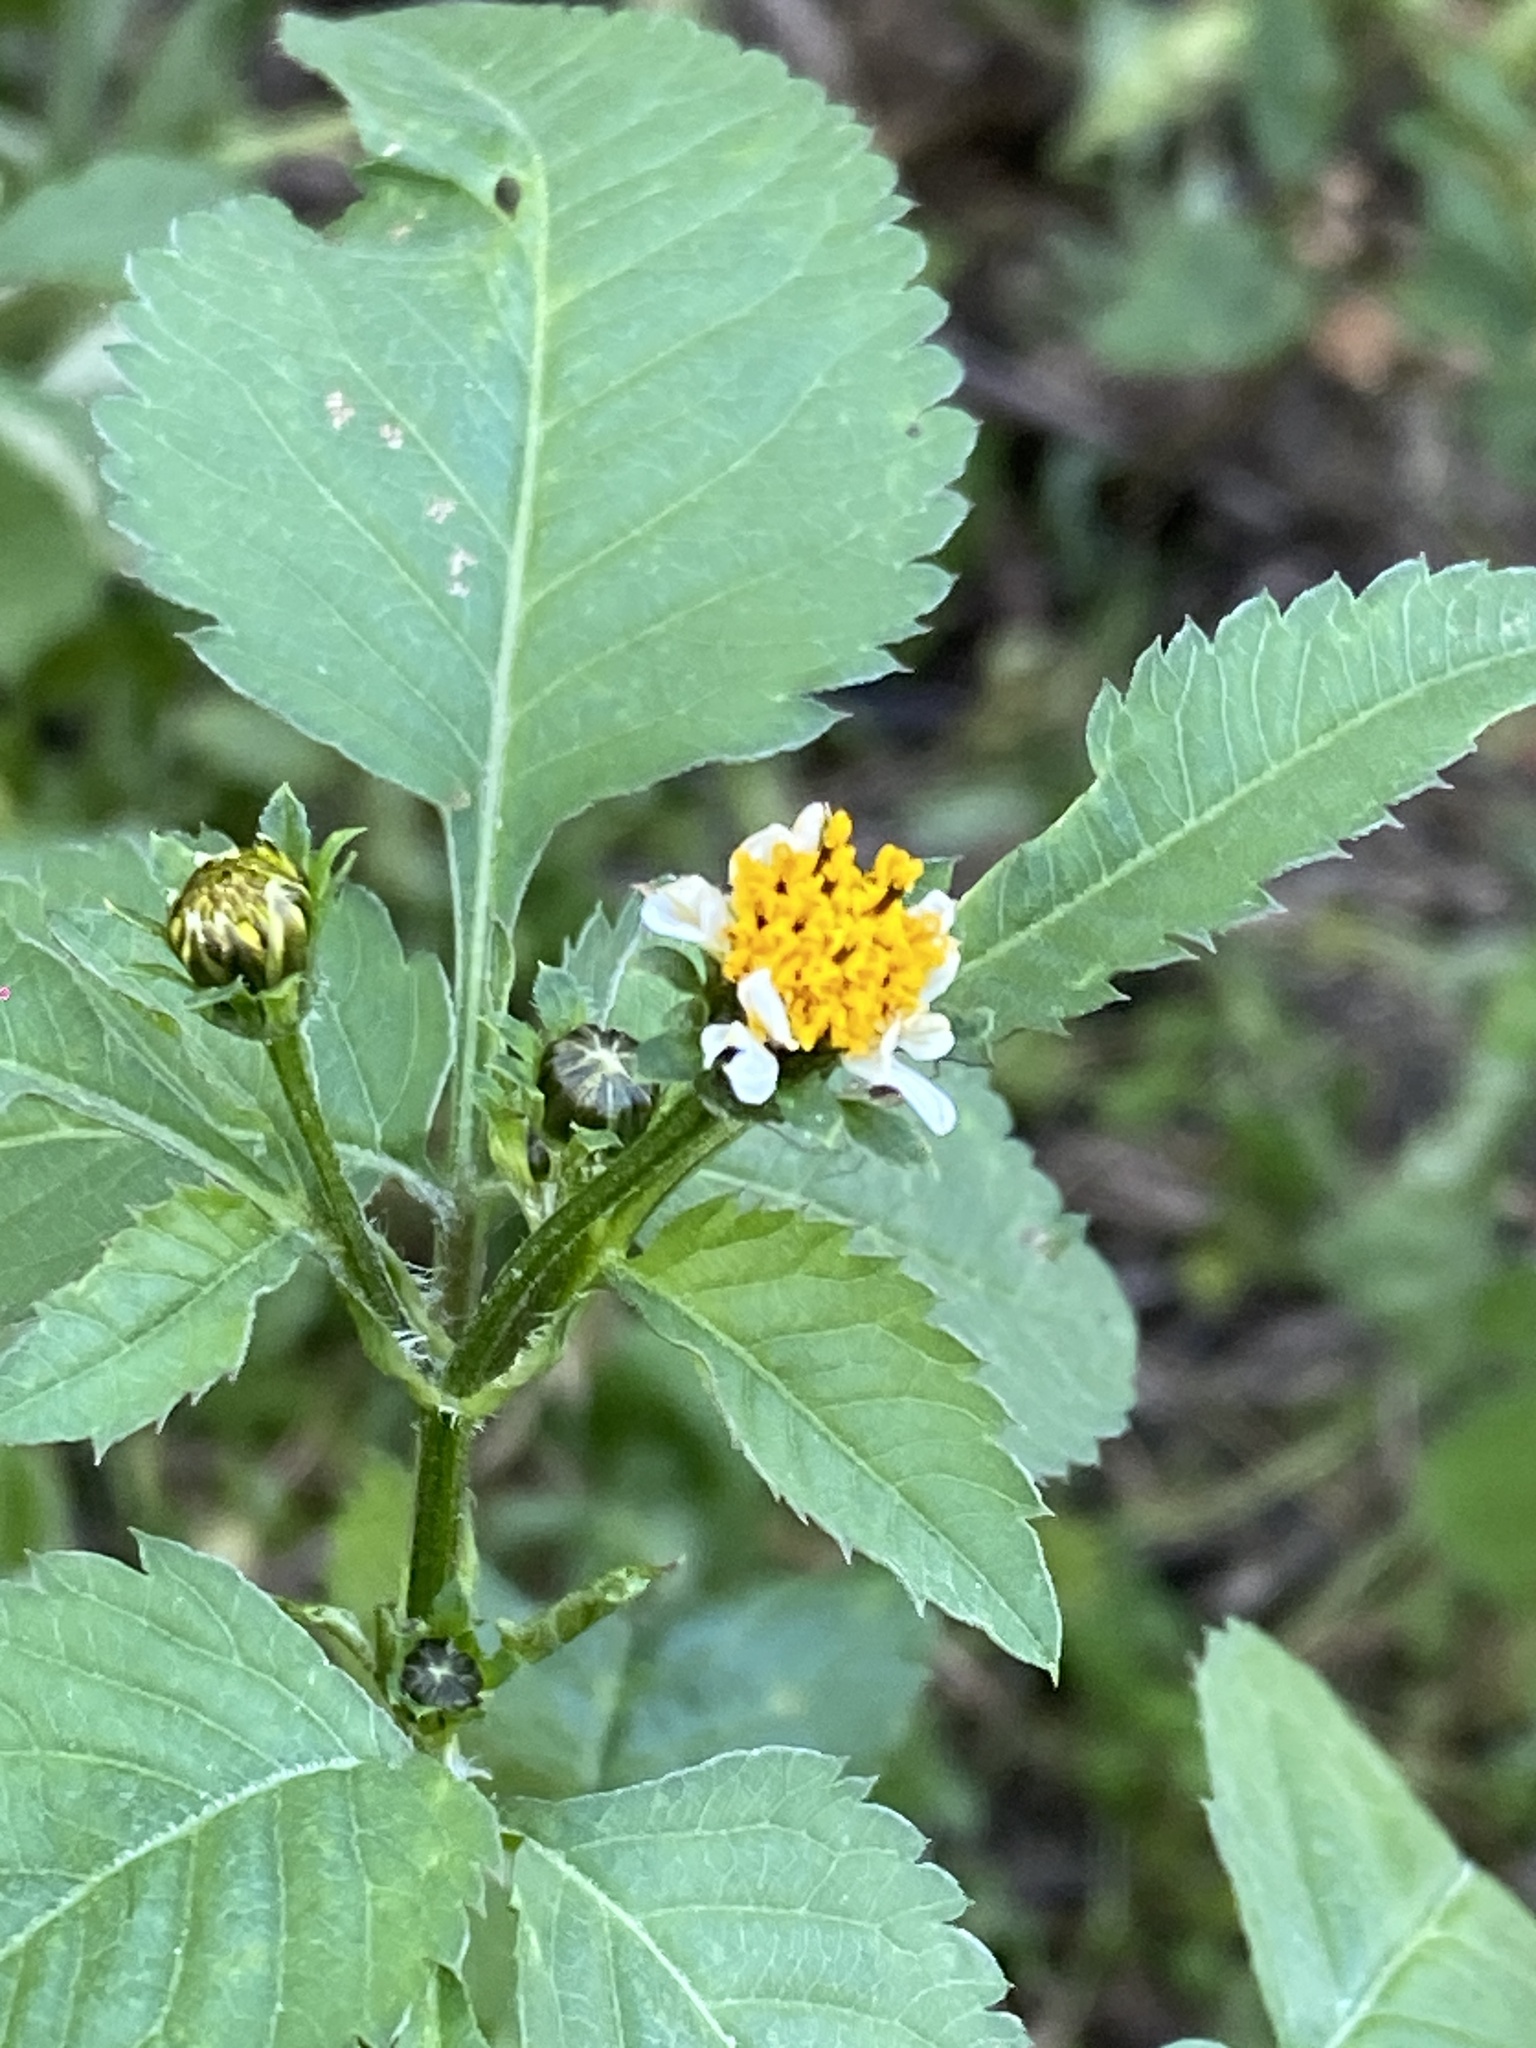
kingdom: Plantae
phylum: Tracheophyta
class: Magnoliopsida
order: Asterales
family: Asteraceae
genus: Bidens
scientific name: Bidens pilosa
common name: Black-jack
